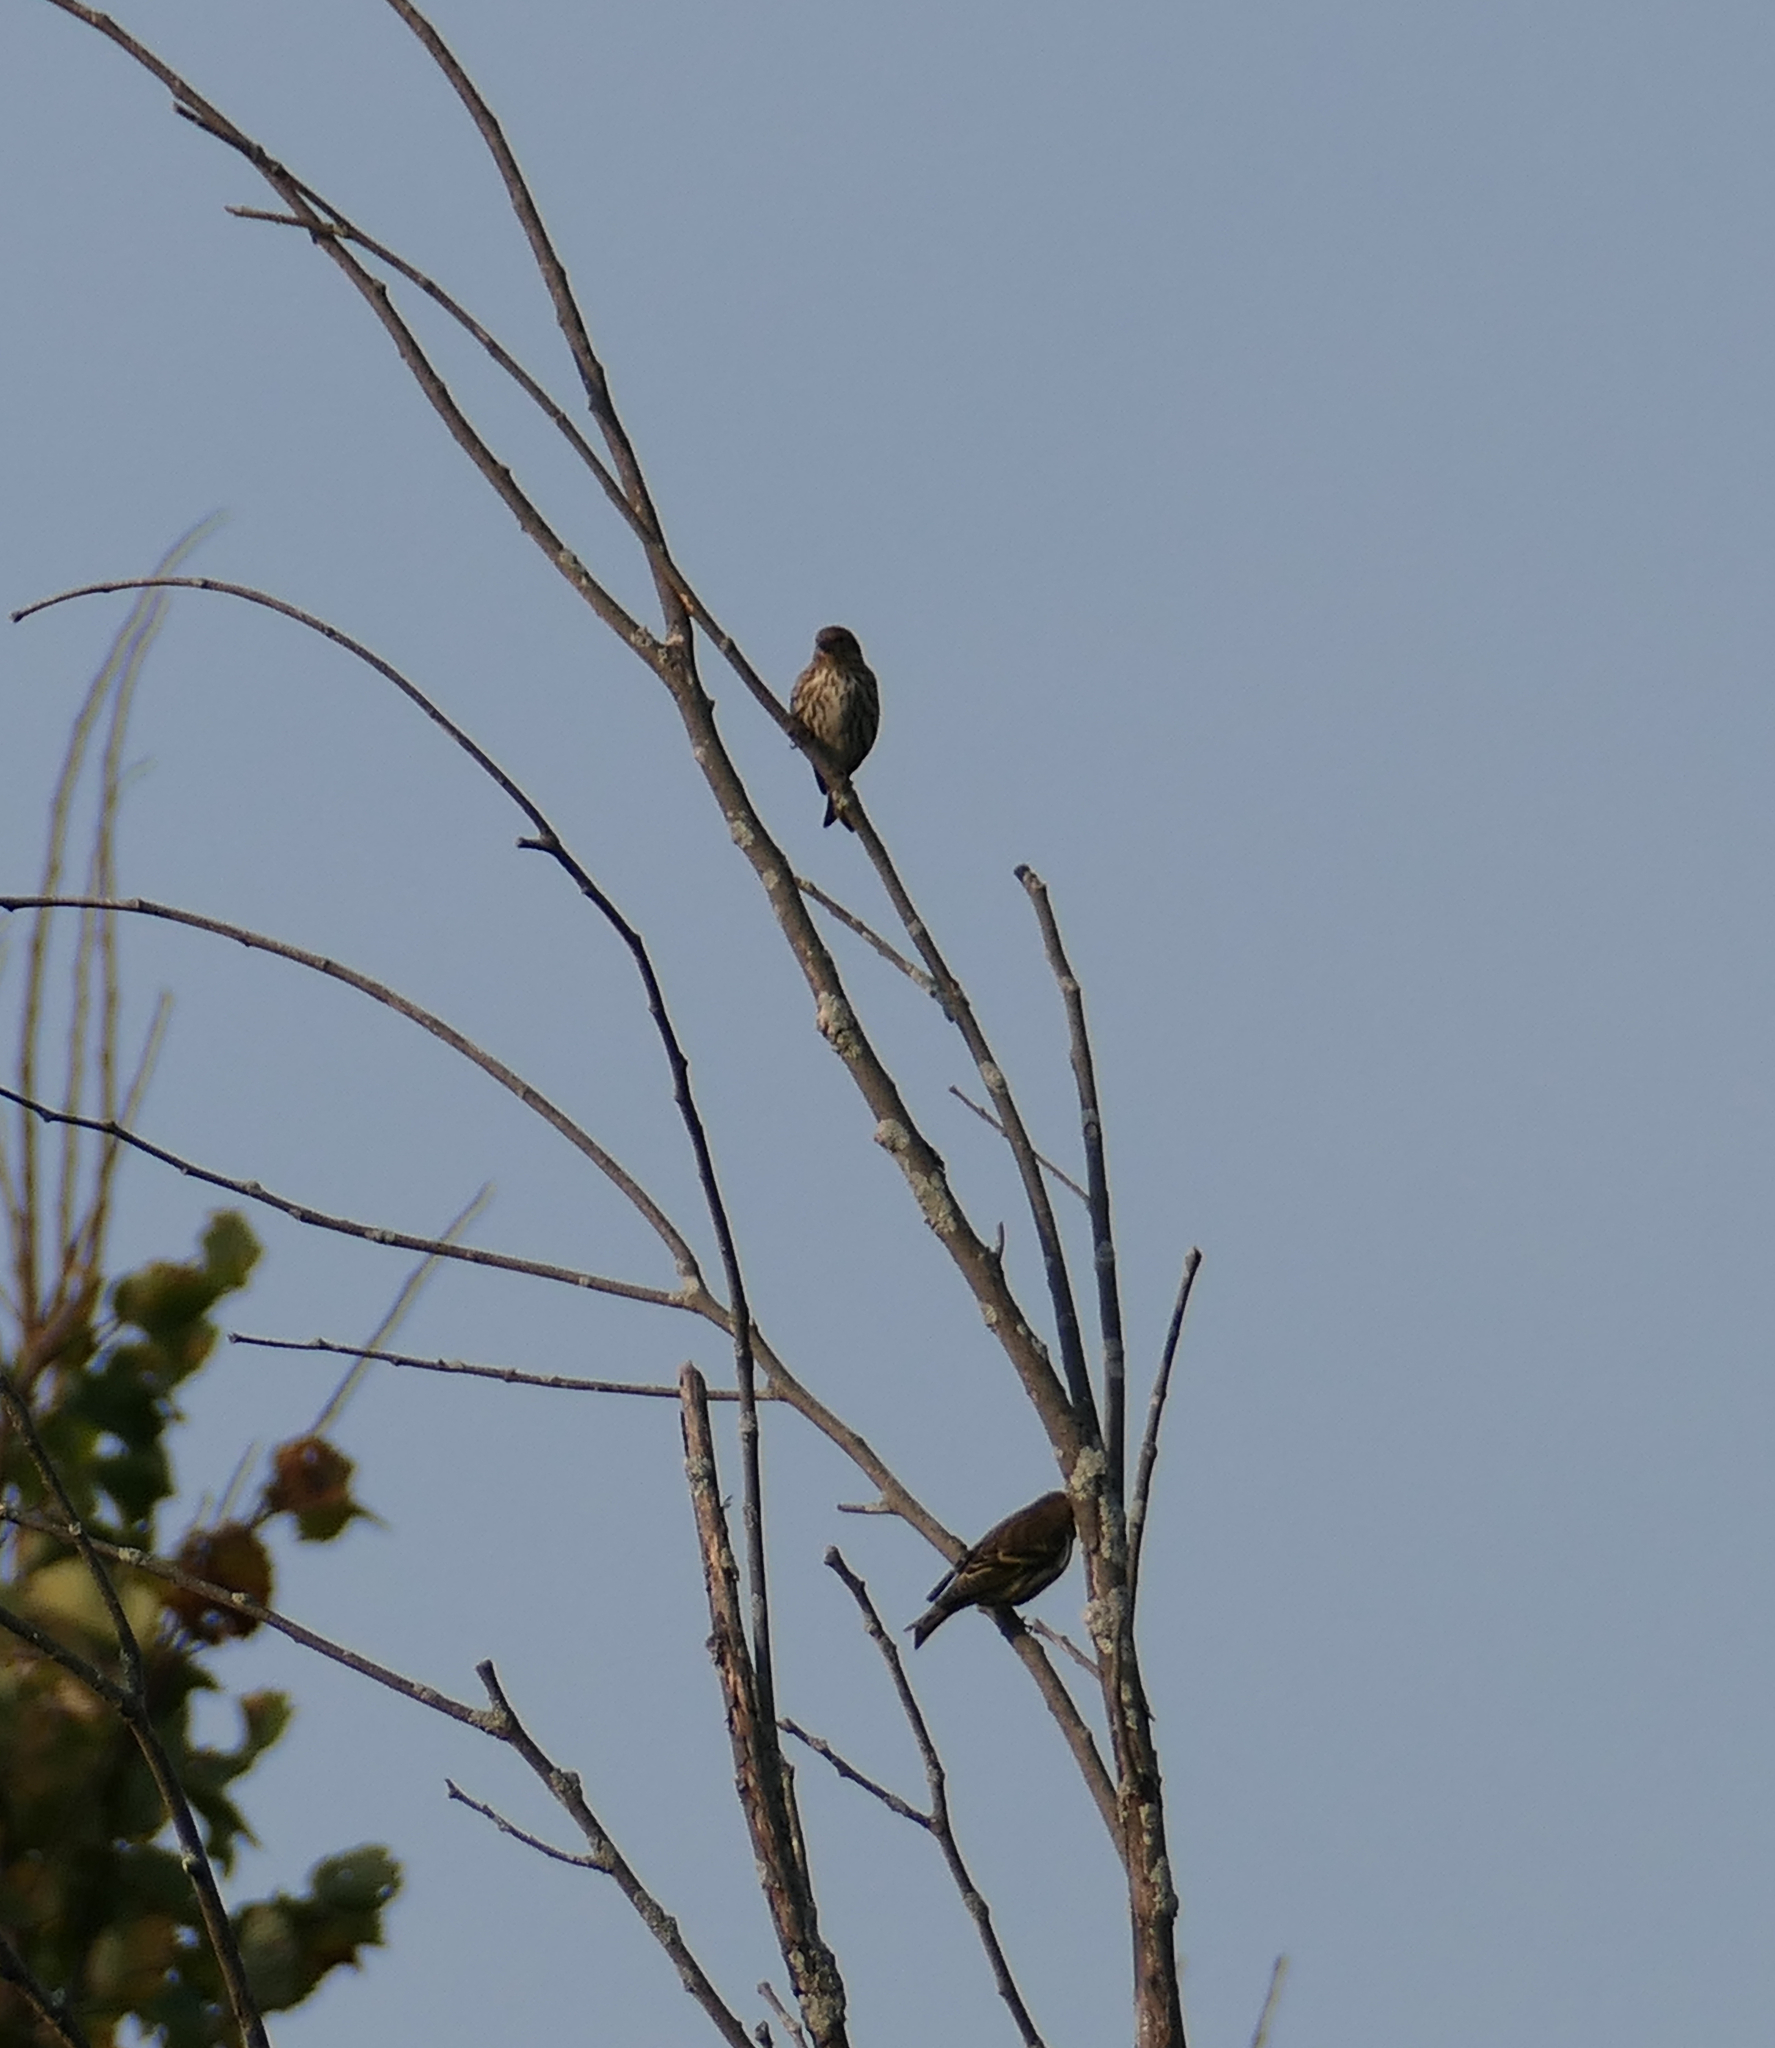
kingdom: Animalia
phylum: Chordata
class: Aves
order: Passeriformes
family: Fringillidae
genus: Spinus
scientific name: Spinus pinus
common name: Pine siskin
